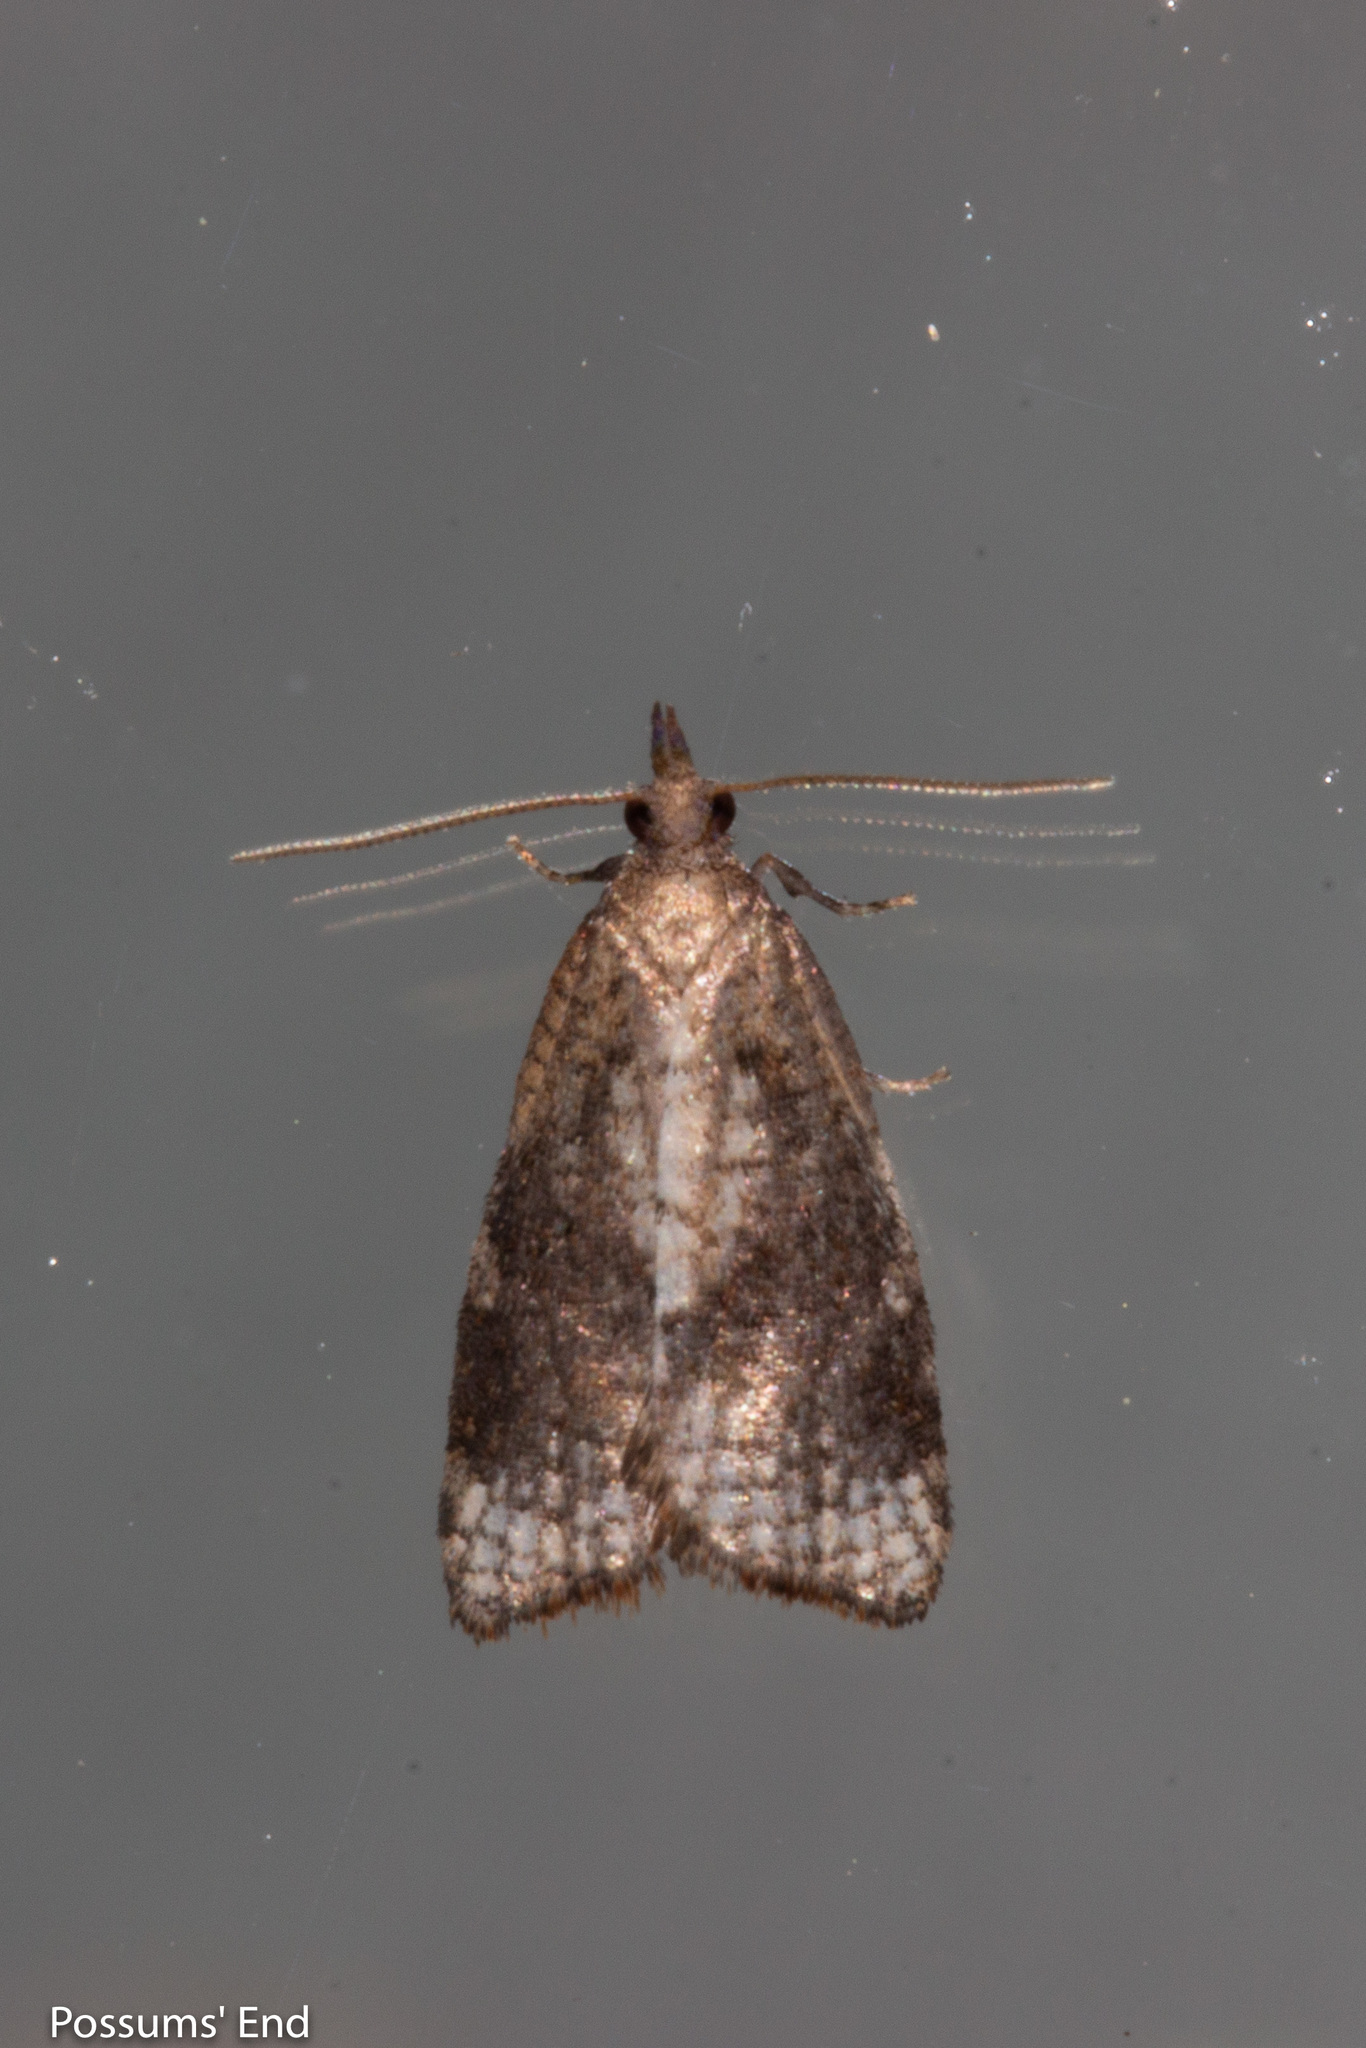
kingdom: Animalia
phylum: Arthropoda
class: Insecta
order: Lepidoptera
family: Tortricidae
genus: Catamacta
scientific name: Catamacta gavisana
